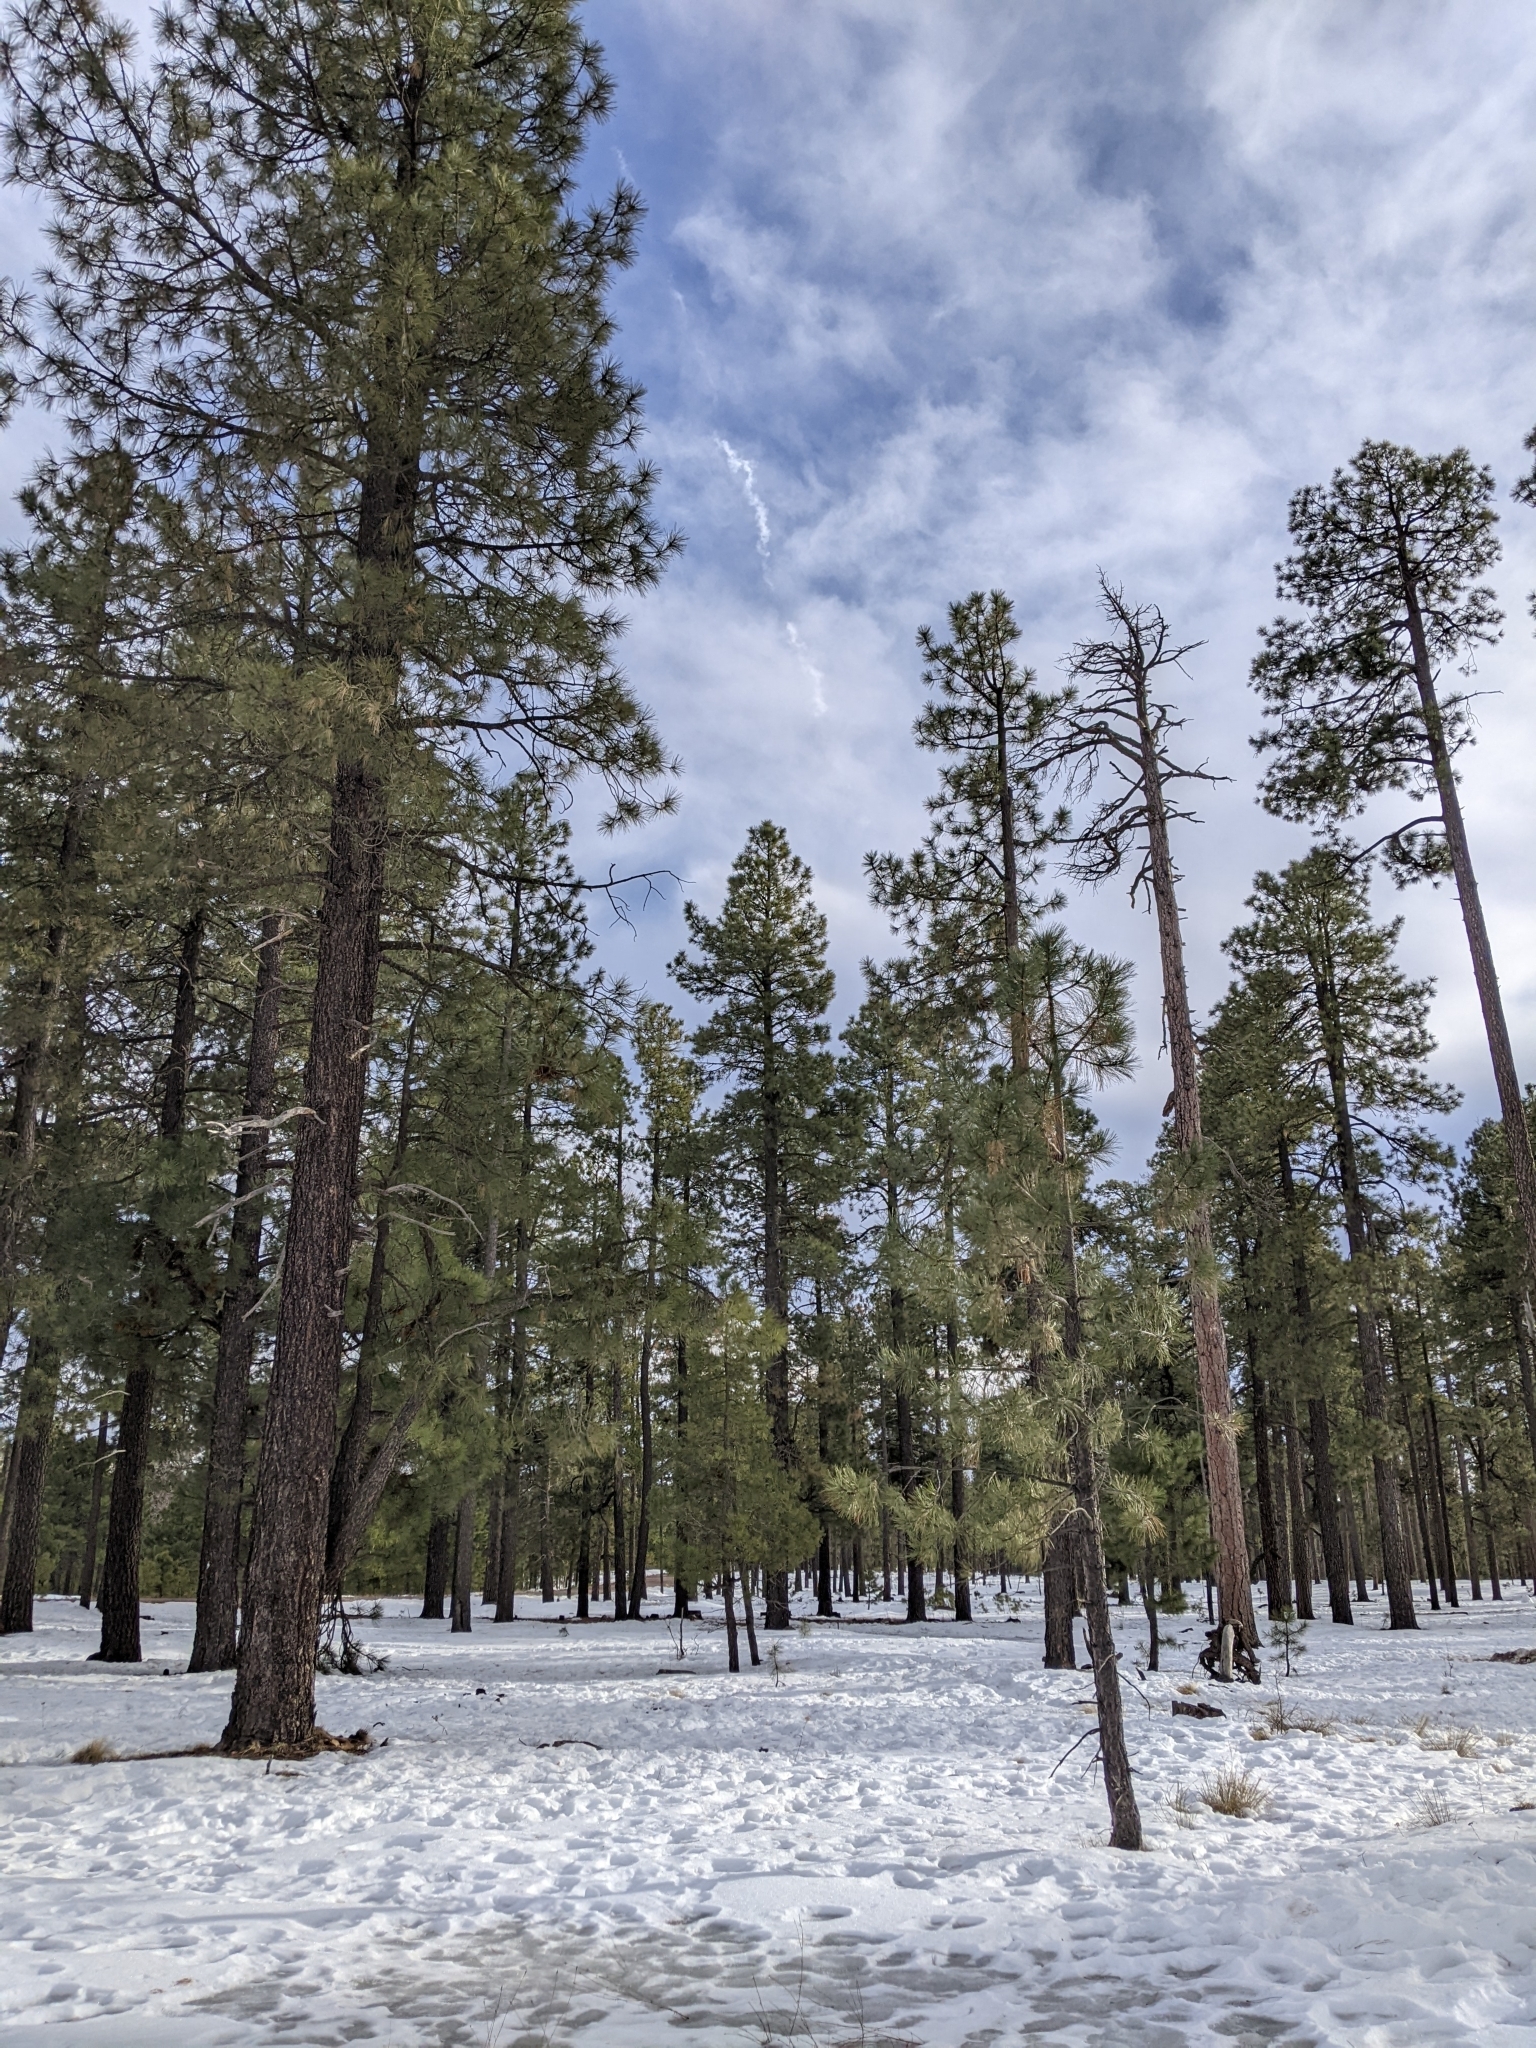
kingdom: Plantae
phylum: Tracheophyta
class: Pinopsida
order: Pinales
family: Pinaceae
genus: Pinus
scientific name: Pinus ponderosa
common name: Western yellow-pine
